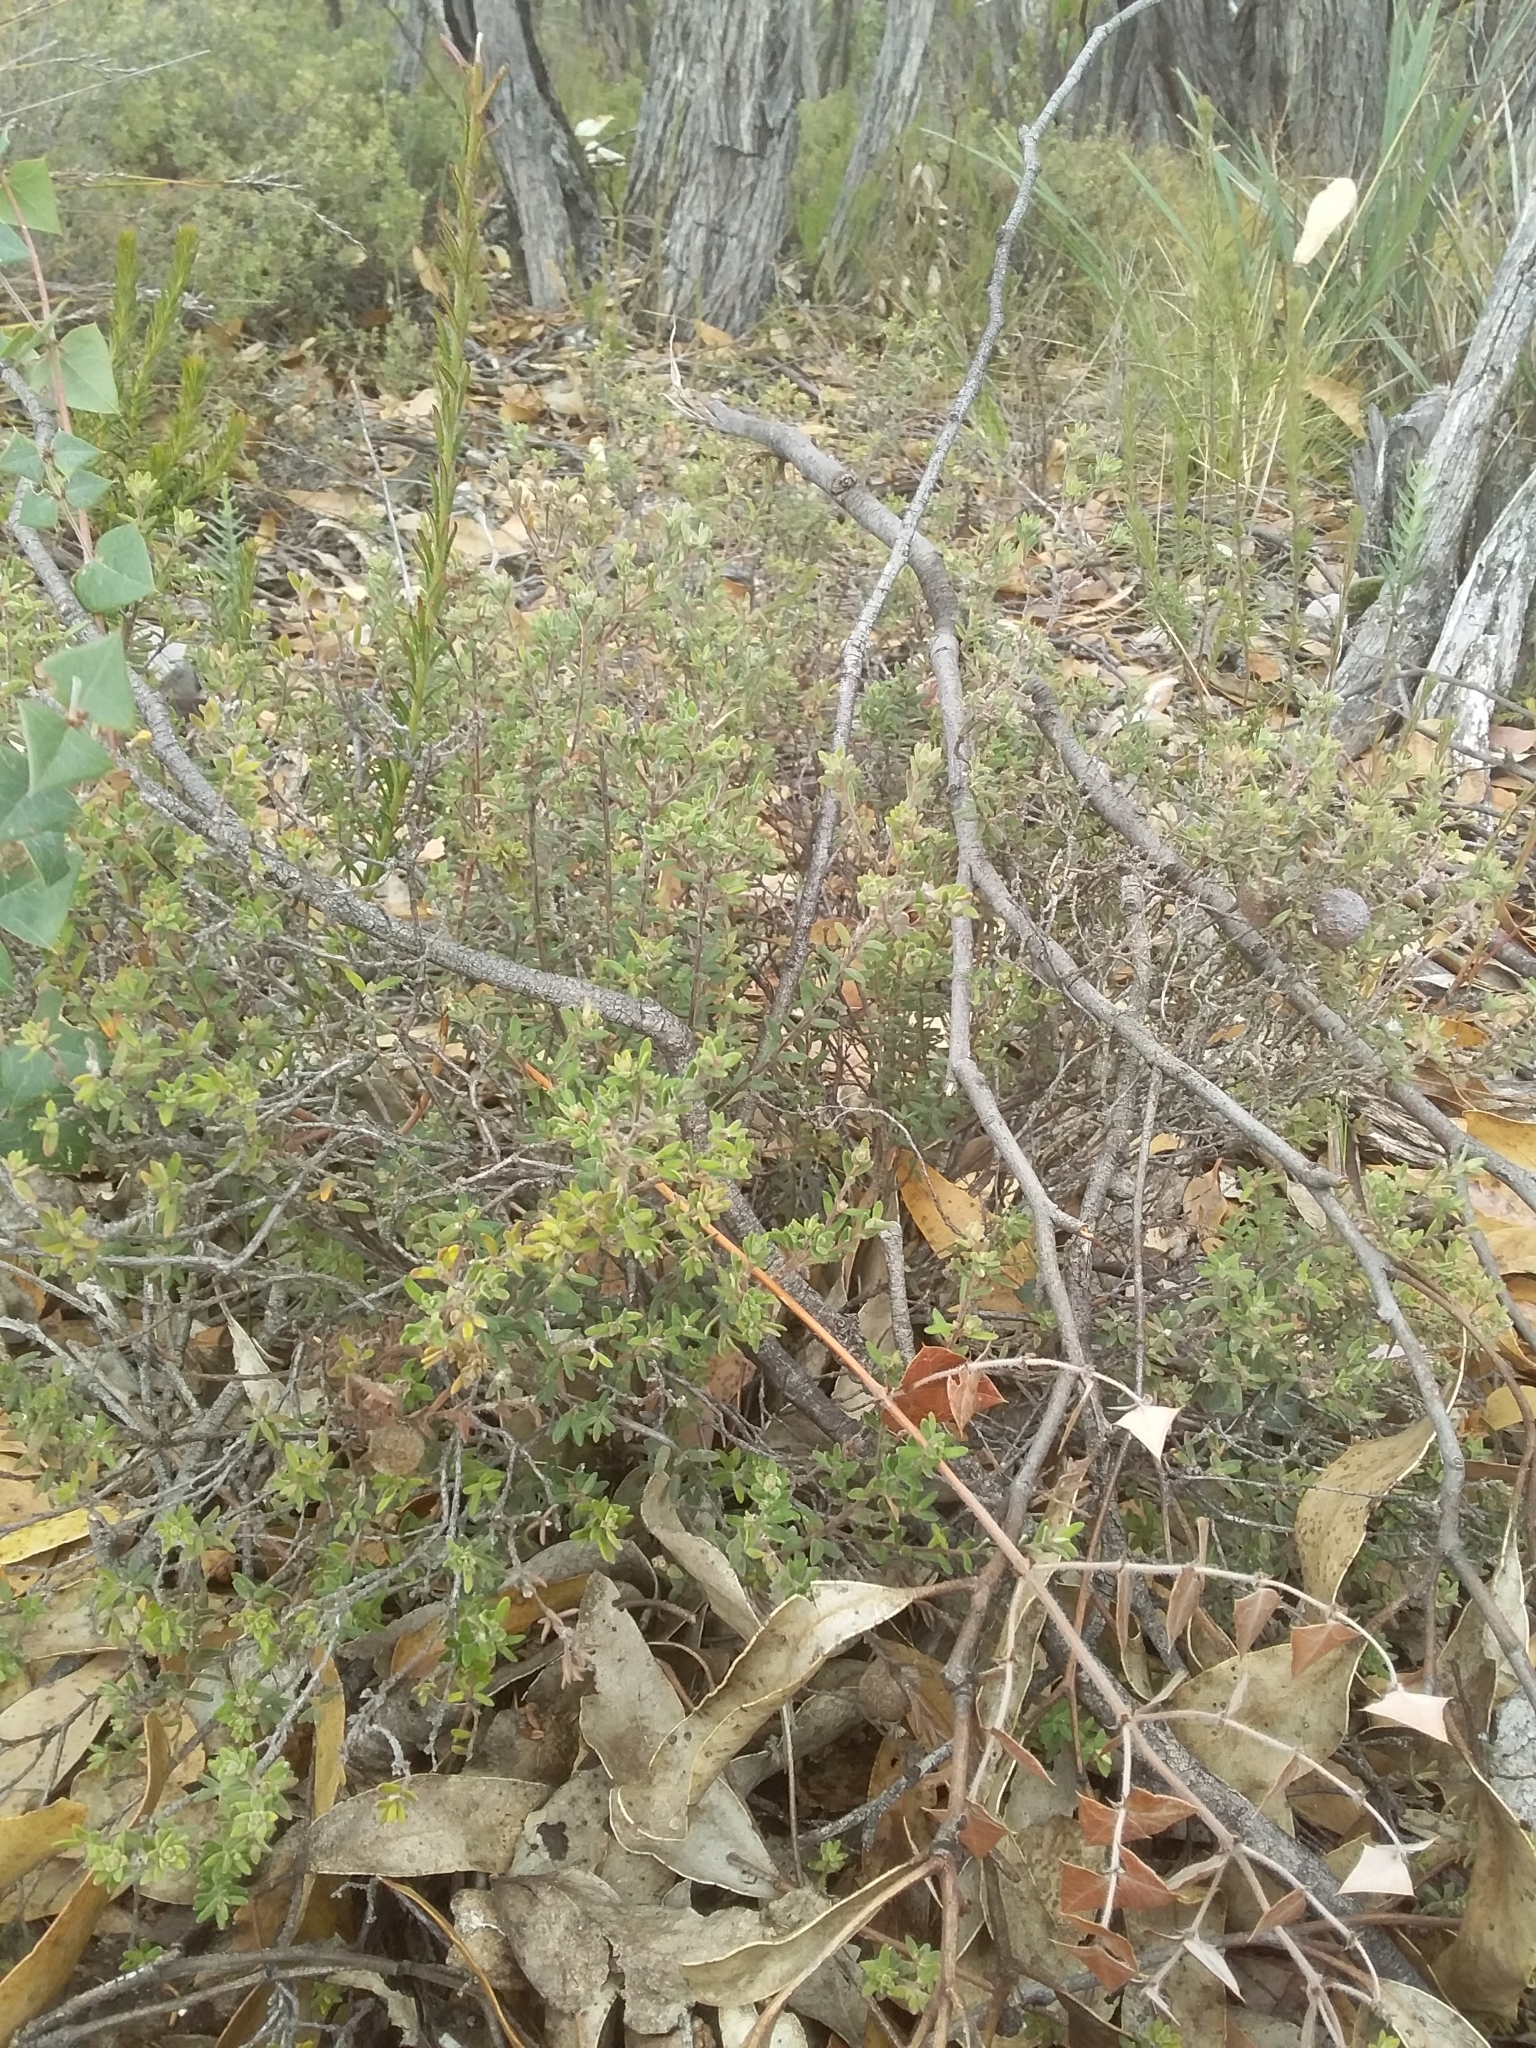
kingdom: Plantae
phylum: Tracheophyta
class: Magnoliopsida
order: Dilleniales
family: Dilleniaceae
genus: Hibbertia
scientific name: Hibbertia crinita
